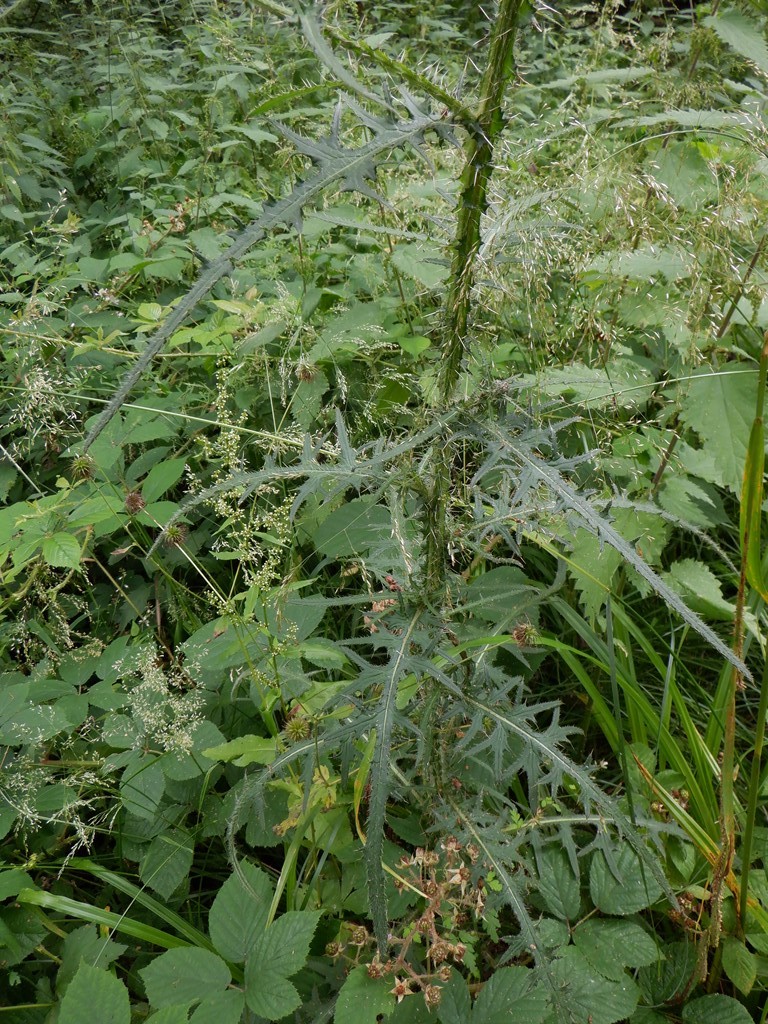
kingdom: Plantae
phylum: Tracheophyta
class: Magnoliopsida
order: Asterales
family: Asteraceae
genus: Cirsium
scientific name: Cirsium palustre
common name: Marsh thistle
